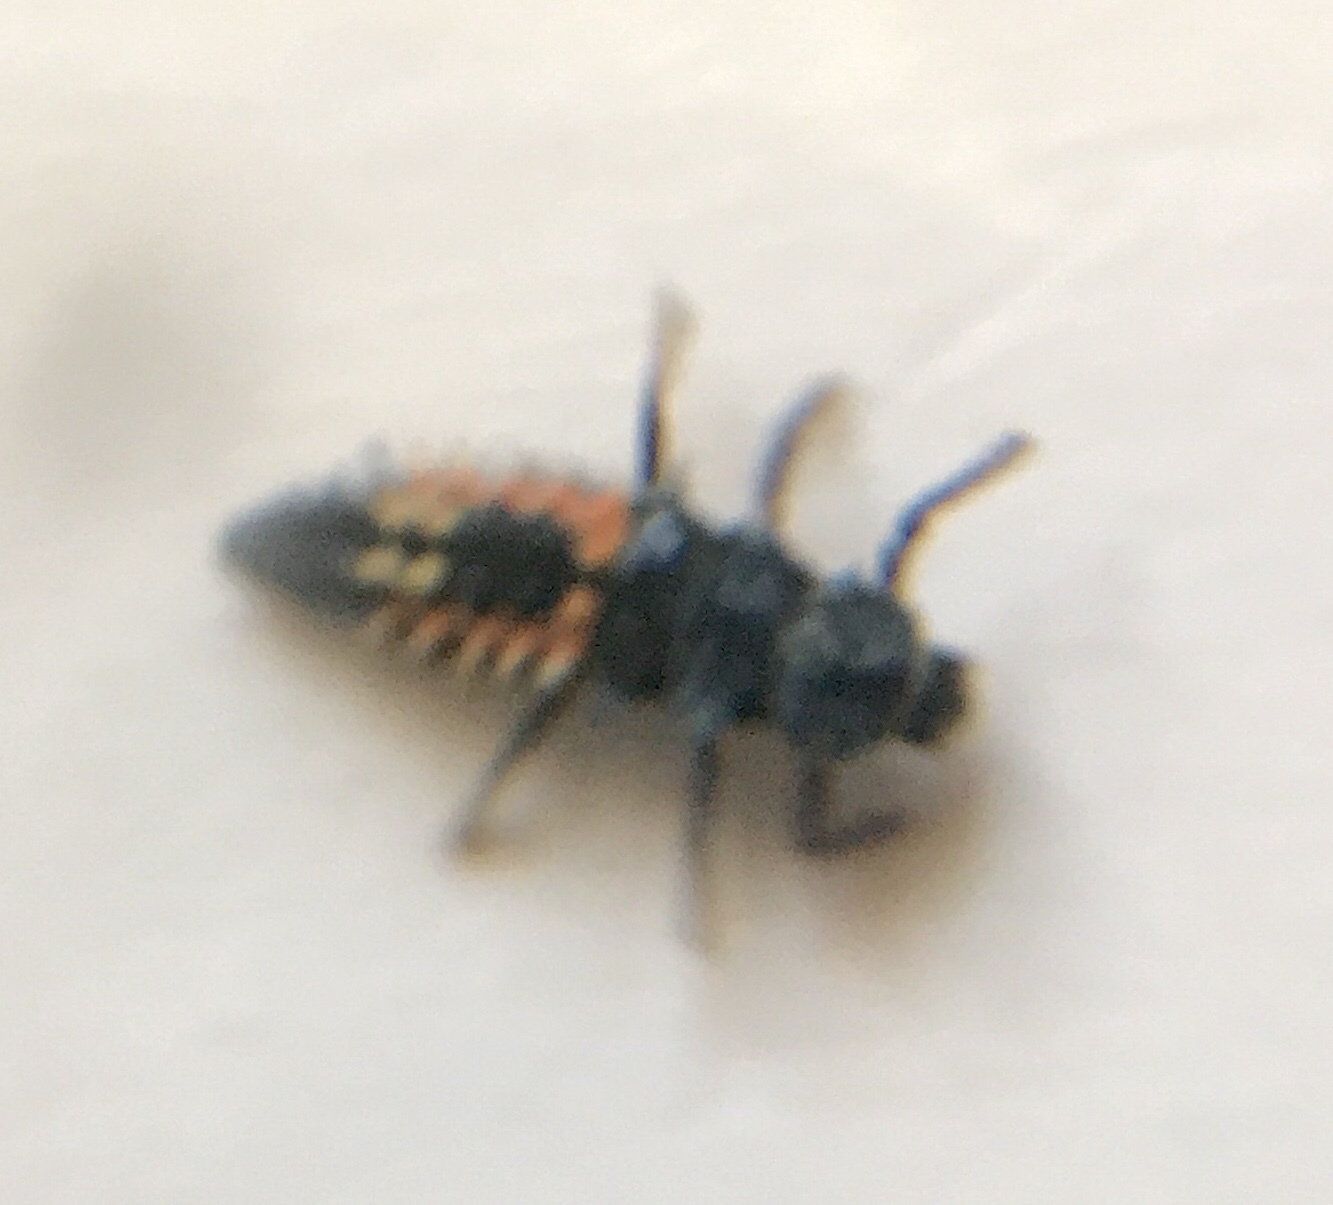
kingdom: Animalia
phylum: Arthropoda
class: Insecta
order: Coleoptera
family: Coccinellidae
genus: Harmonia
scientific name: Harmonia axyridis
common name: Harlequin ladybird
